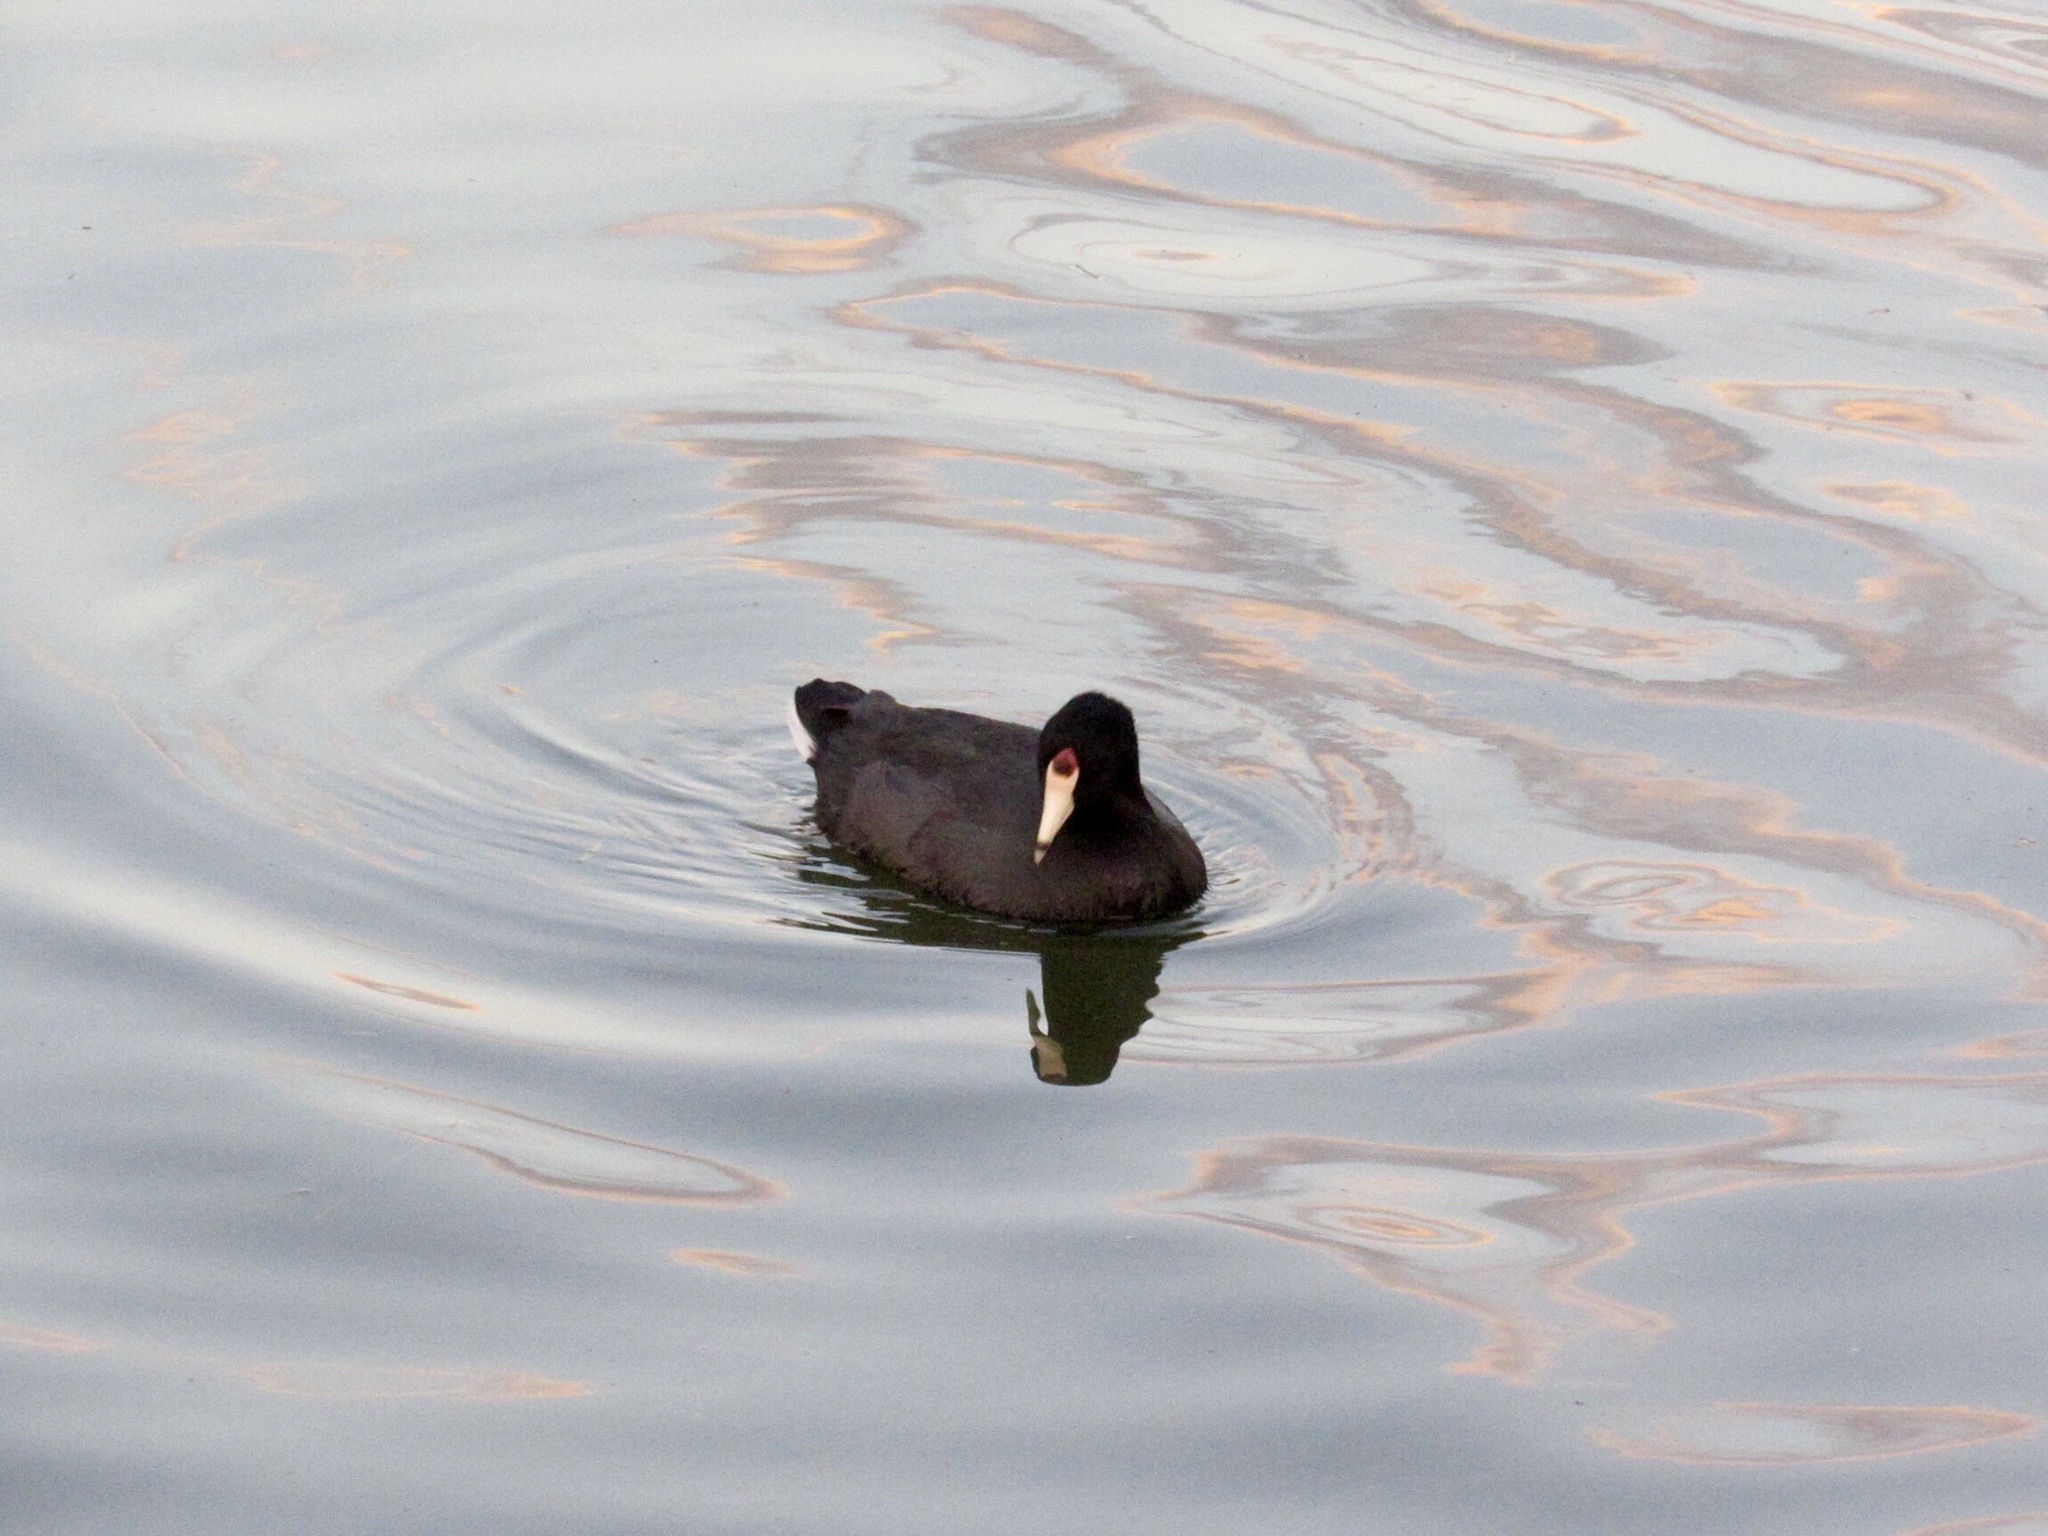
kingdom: Animalia
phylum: Chordata
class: Aves
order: Gruiformes
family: Rallidae
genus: Fulica
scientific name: Fulica americana
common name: American coot
